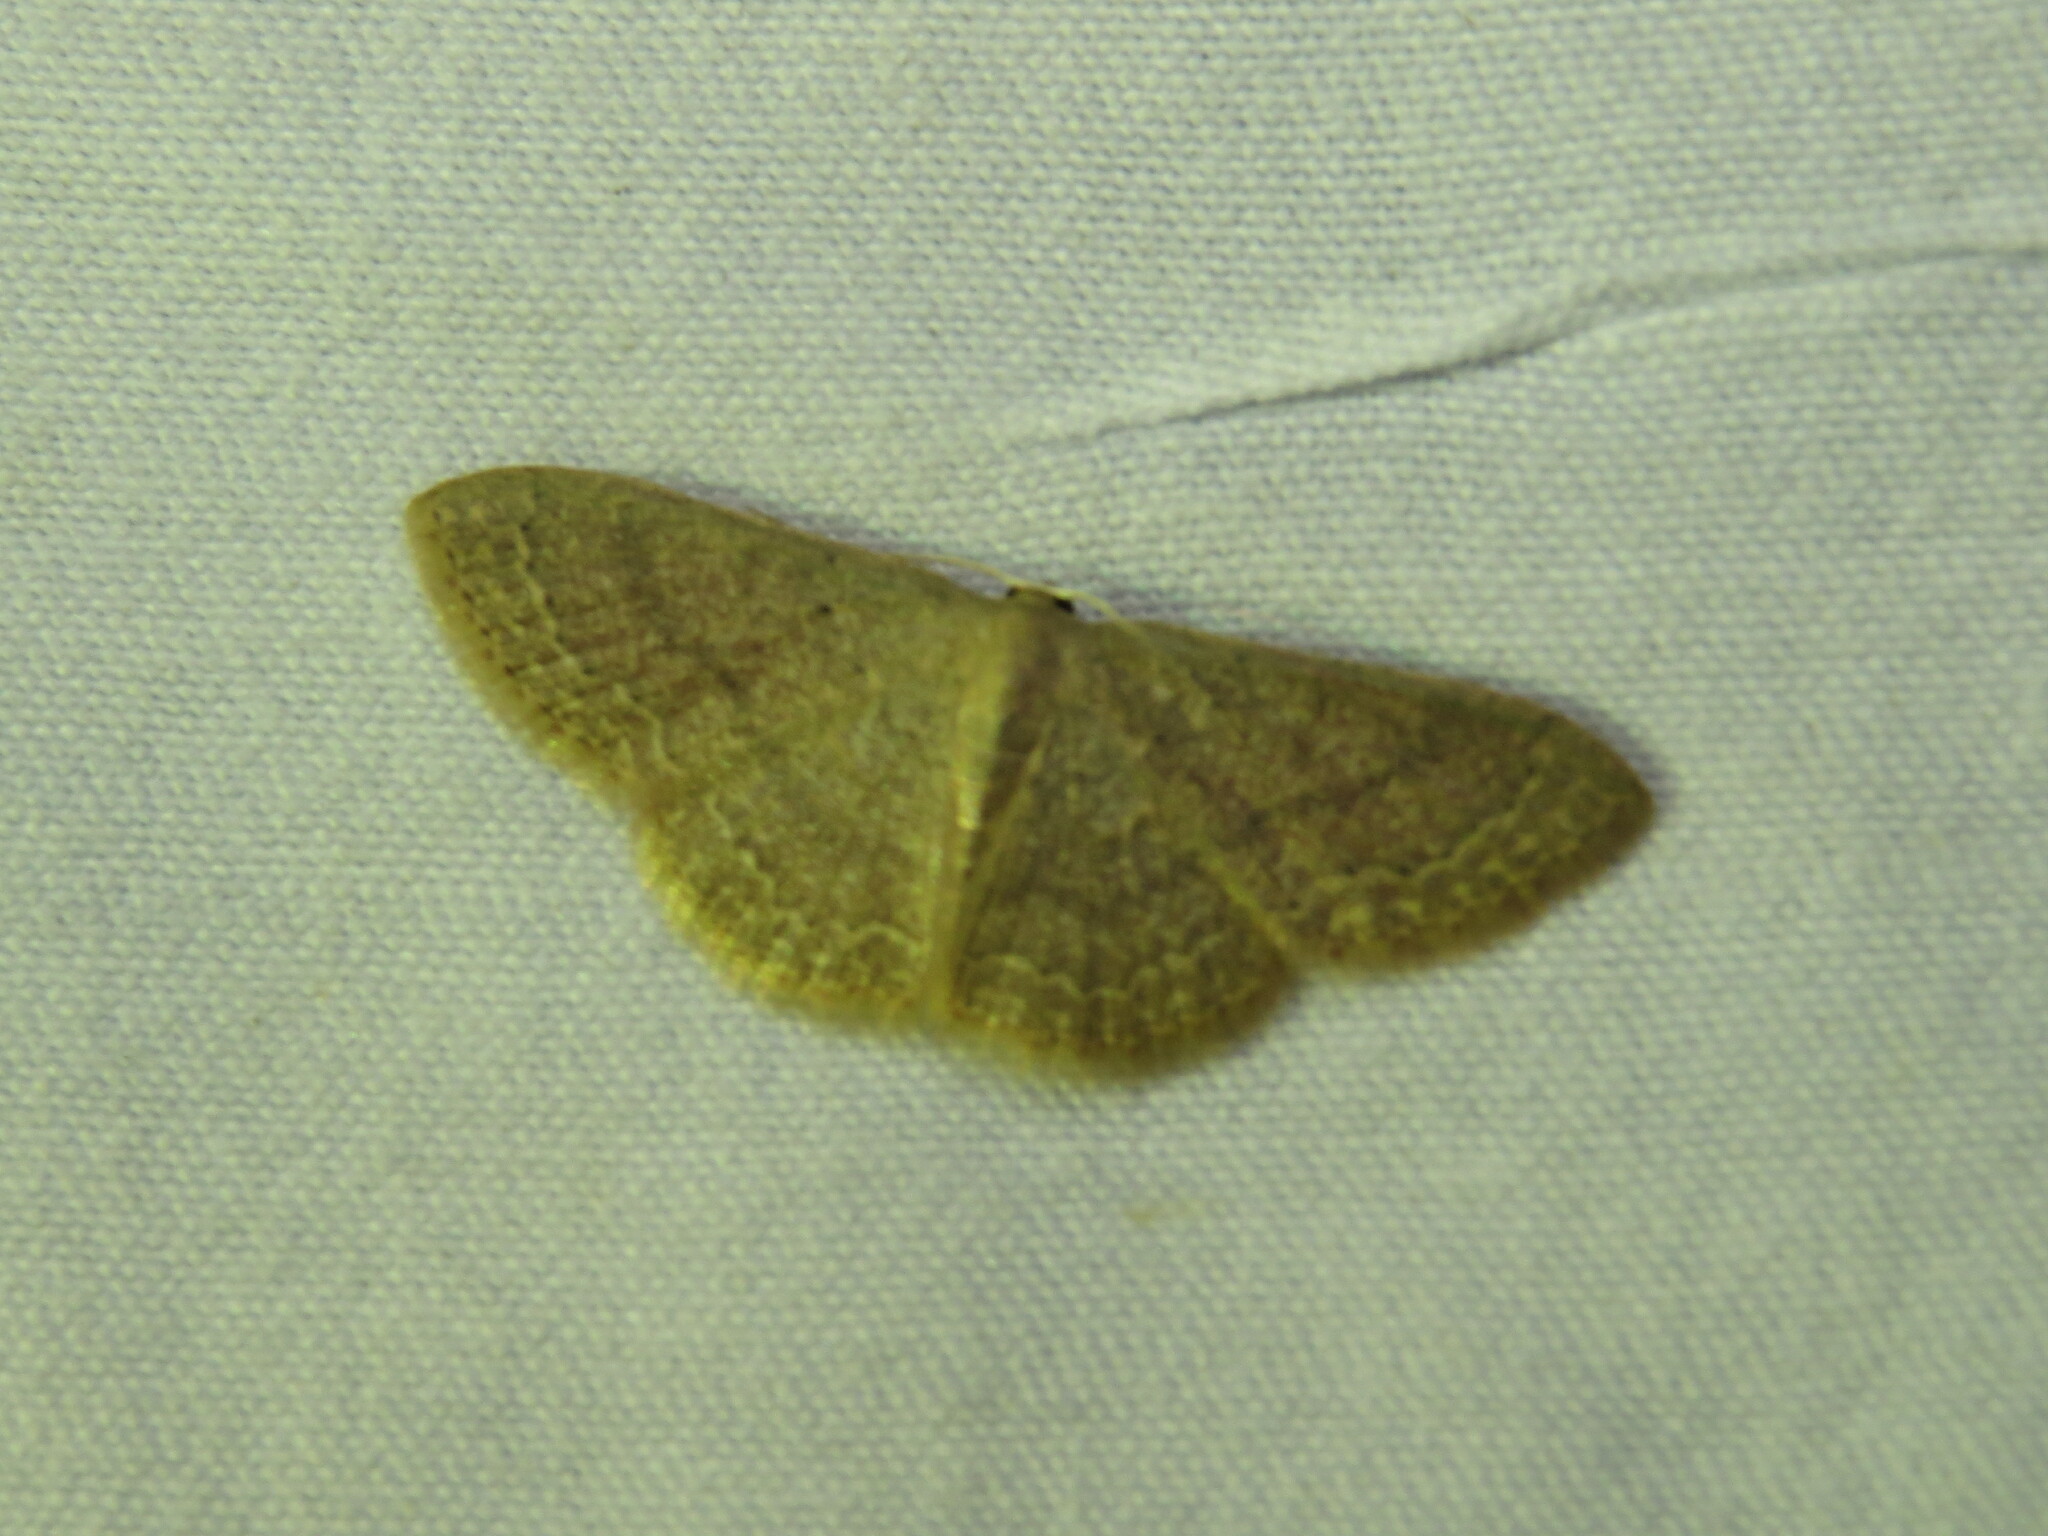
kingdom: Animalia
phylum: Arthropoda
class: Insecta
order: Lepidoptera
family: Geometridae
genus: Pleuroprucha
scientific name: Pleuroprucha insulsaria
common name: Common tan wave
